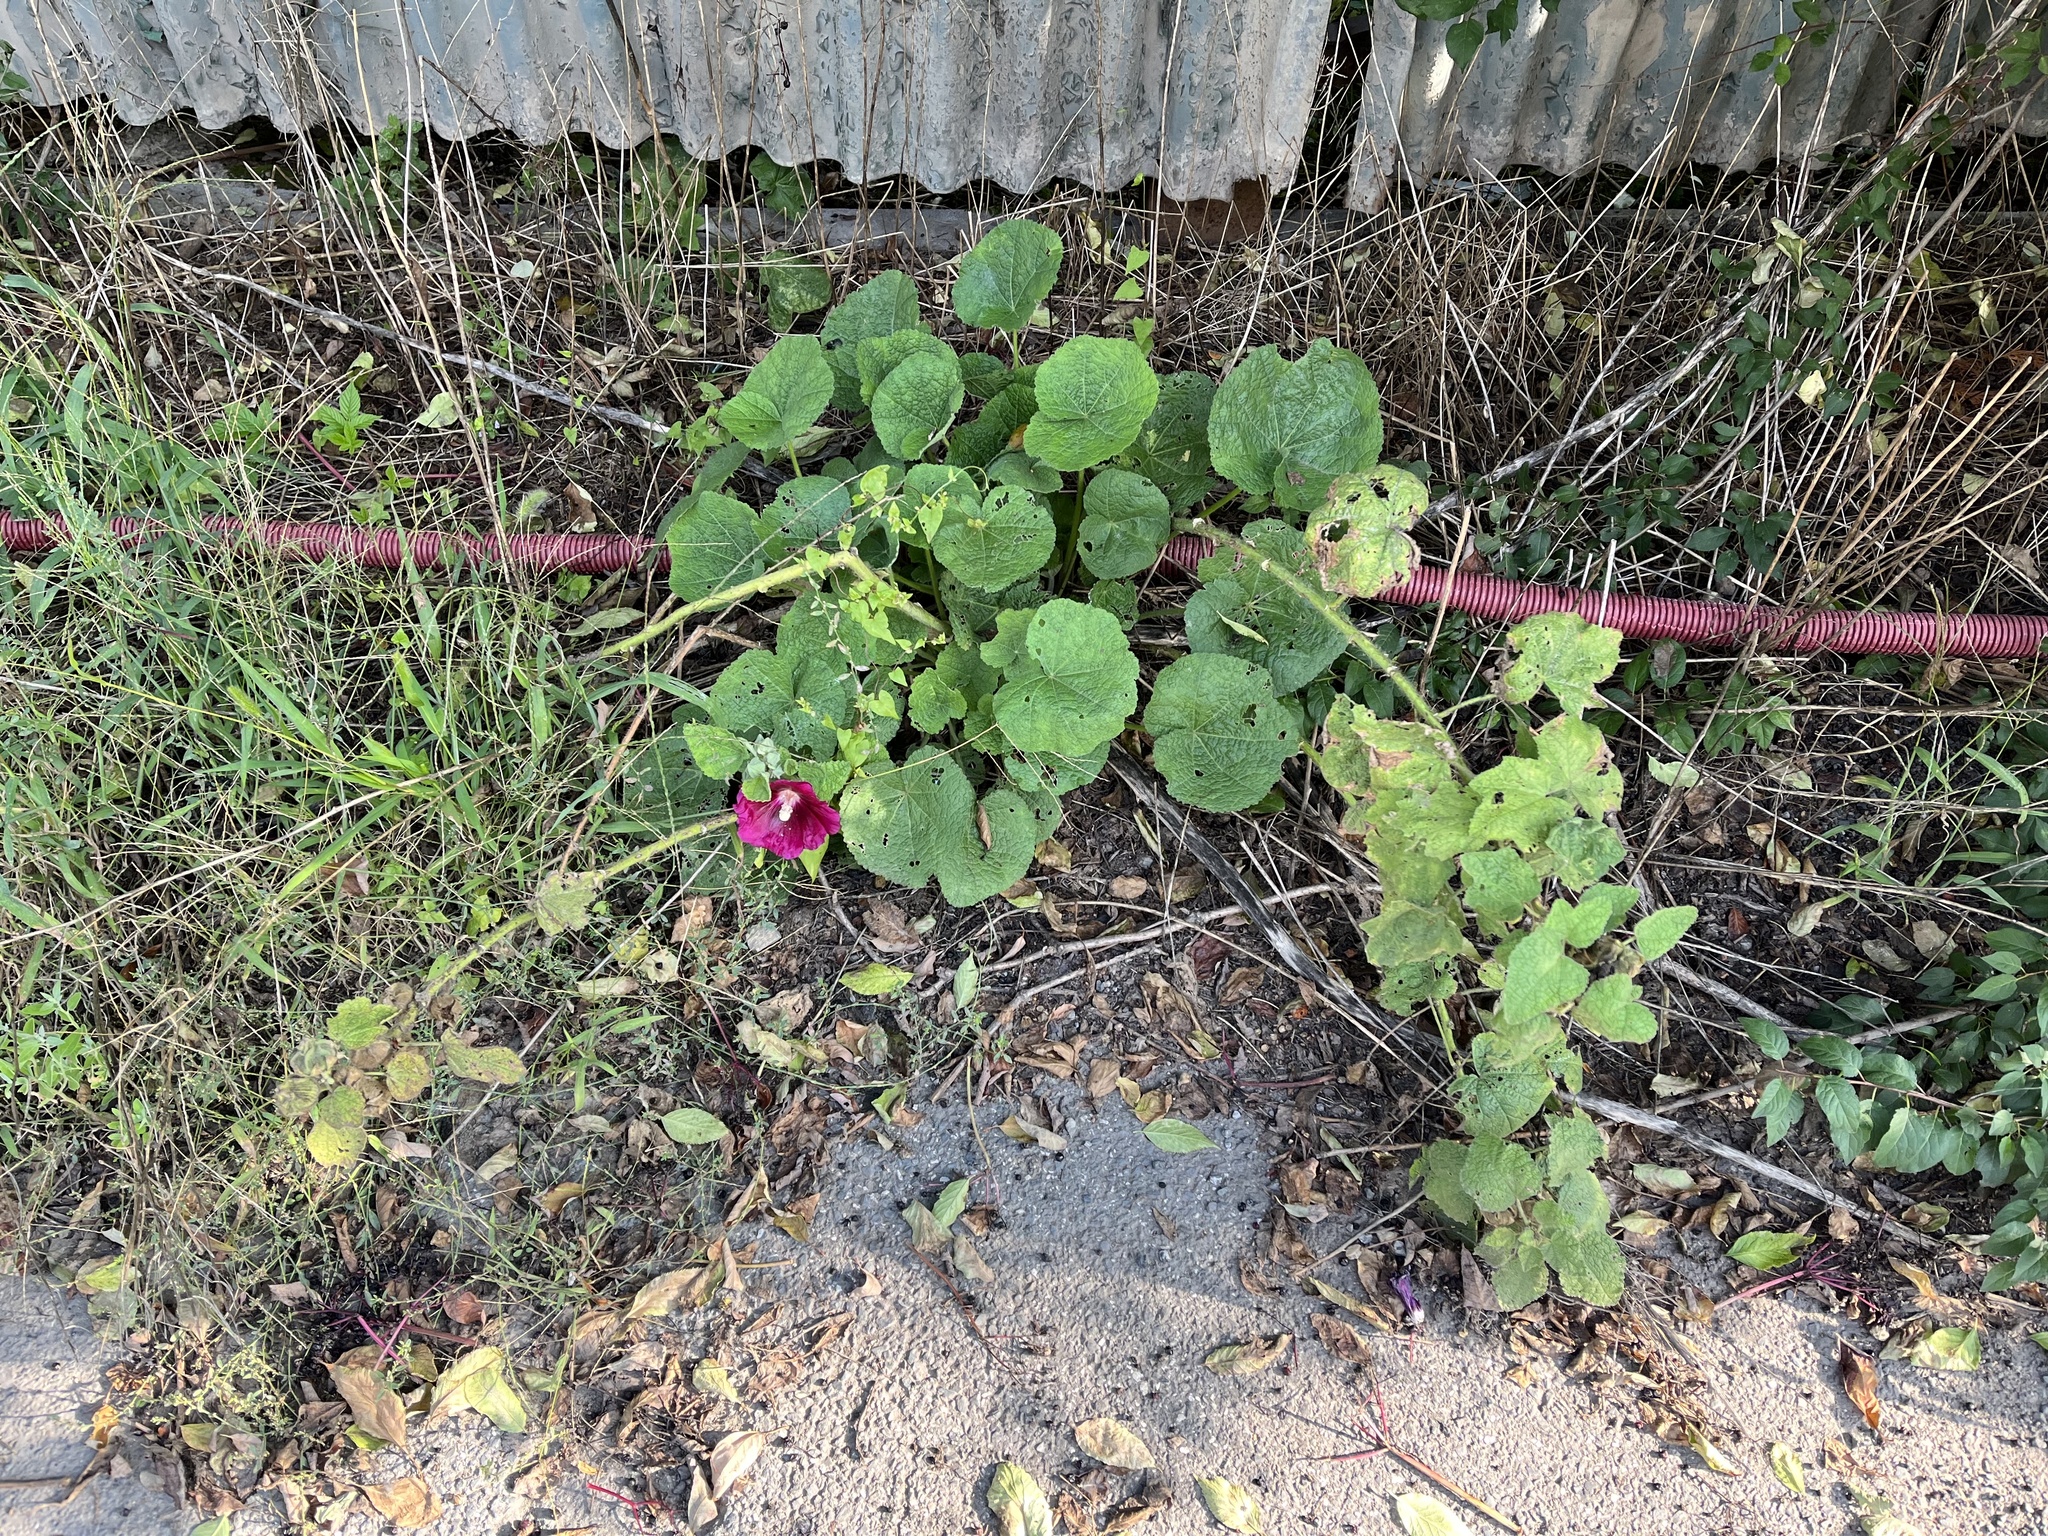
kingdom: Plantae
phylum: Tracheophyta
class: Magnoliopsida
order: Malvales
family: Malvaceae
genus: Alcea
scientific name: Alcea rosea
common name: Hollyhock
